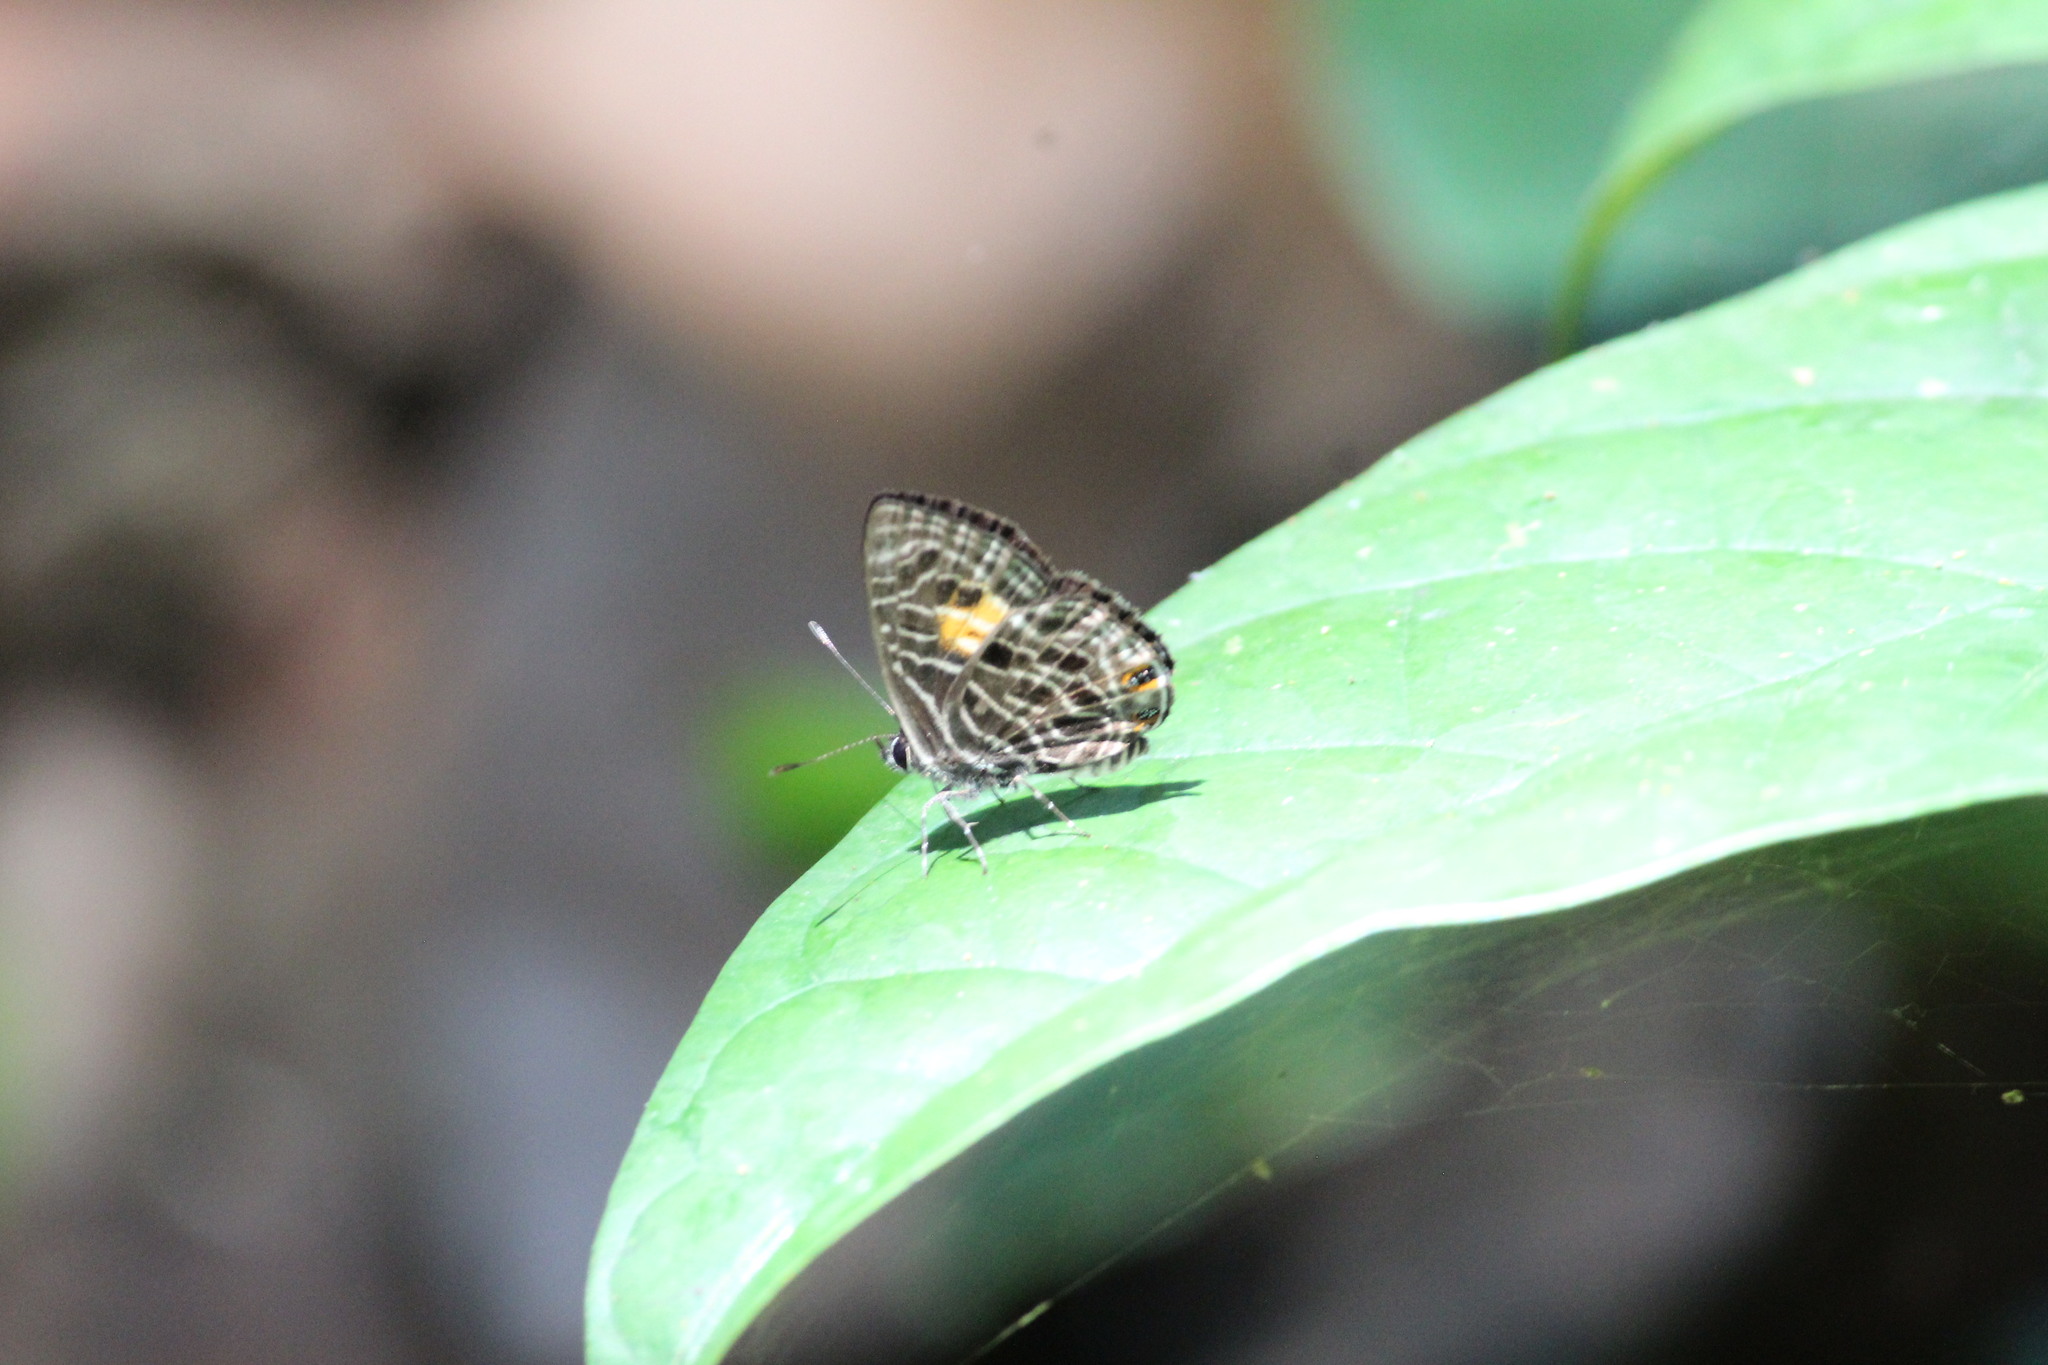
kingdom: Animalia
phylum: Arthropoda
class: Insecta
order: Lepidoptera
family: Lycaenidae
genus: Neurellipes
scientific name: Neurellipes
